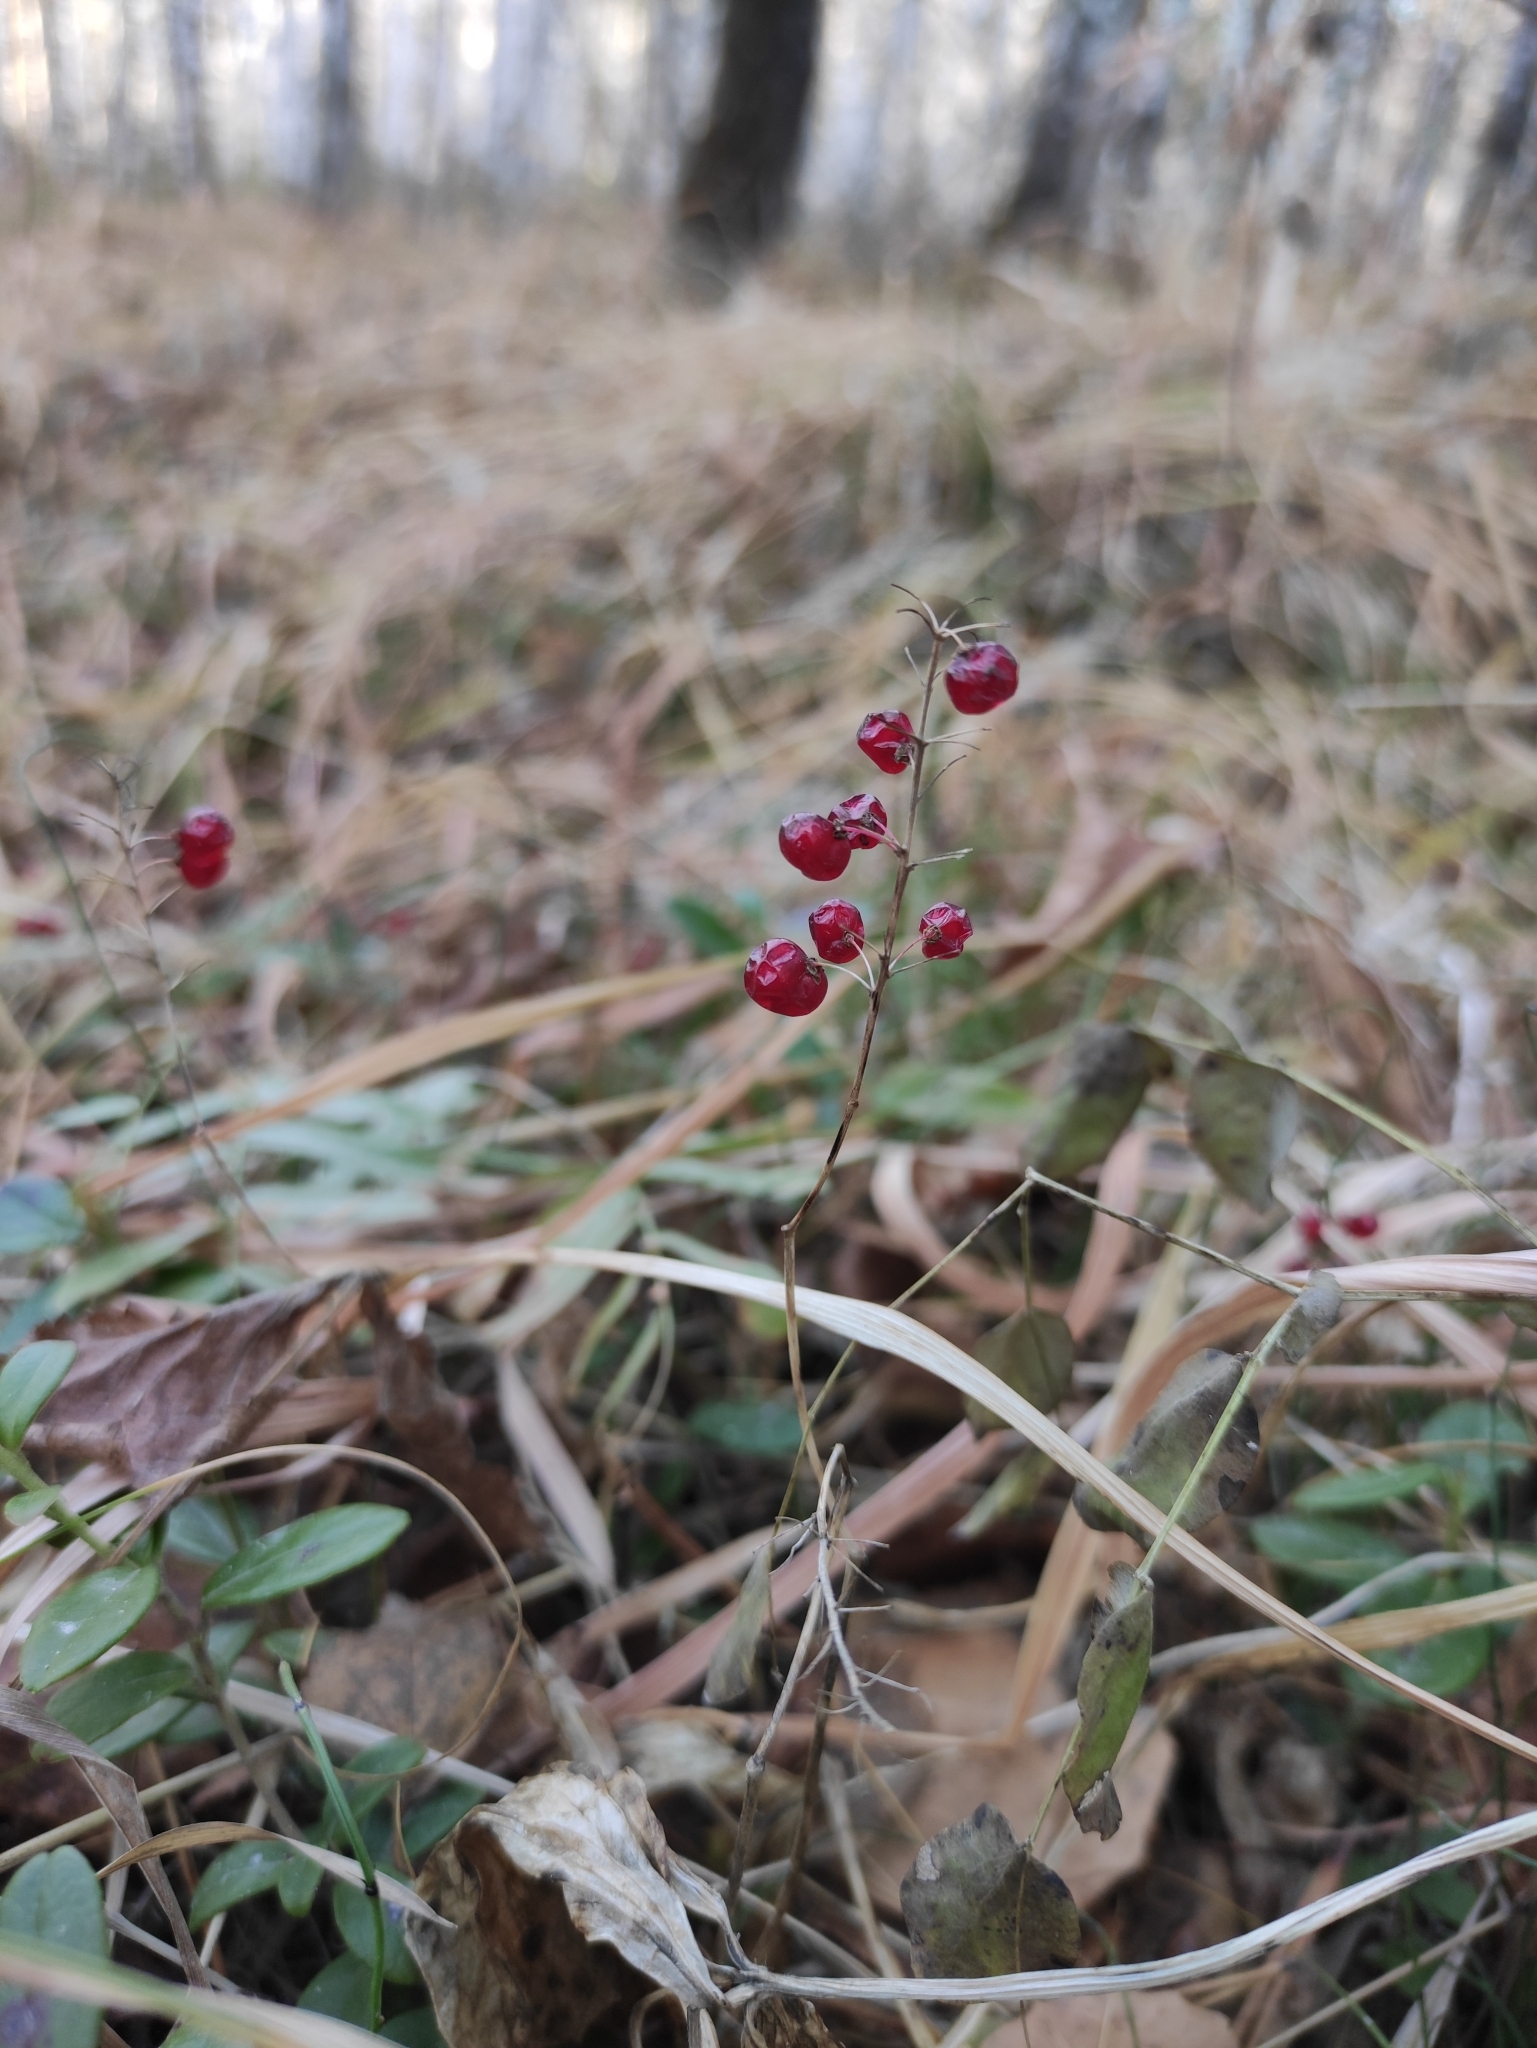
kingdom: Plantae
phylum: Tracheophyta
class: Liliopsida
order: Asparagales
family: Asparagaceae
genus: Maianthemum
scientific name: Maianthemum bifolium
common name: May lily
